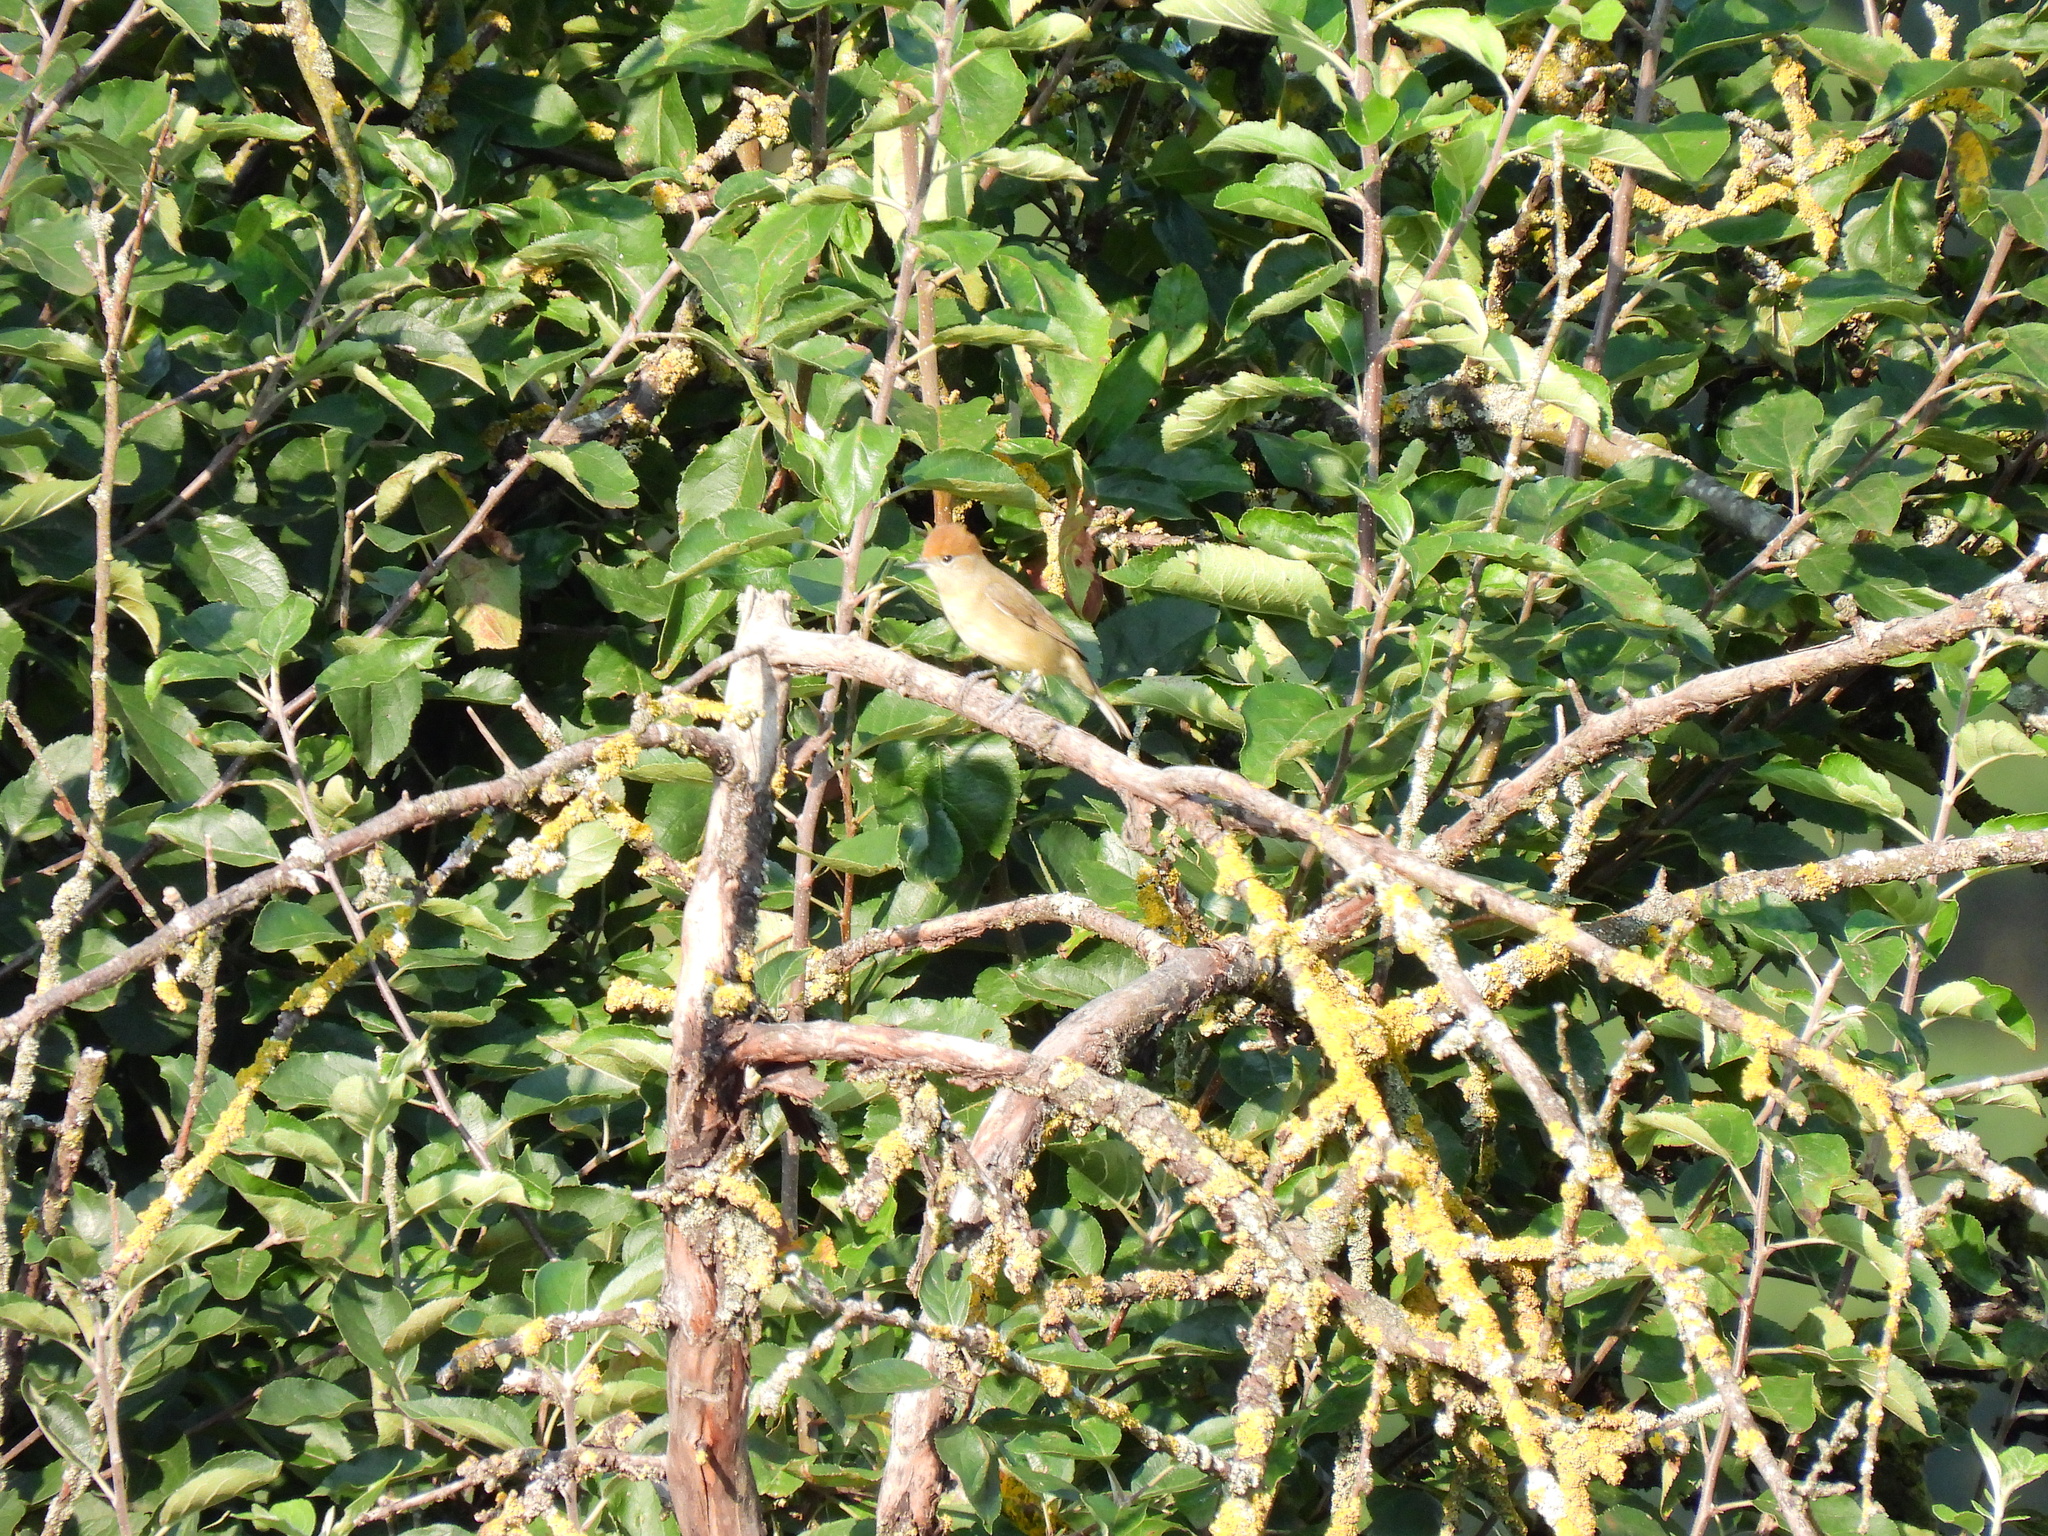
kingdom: Animalia
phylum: Chordata
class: Aves
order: Passeriformes
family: Sylviidae
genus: Sylvia
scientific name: Sylvia atricapilla
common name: Eurasian blackcap
